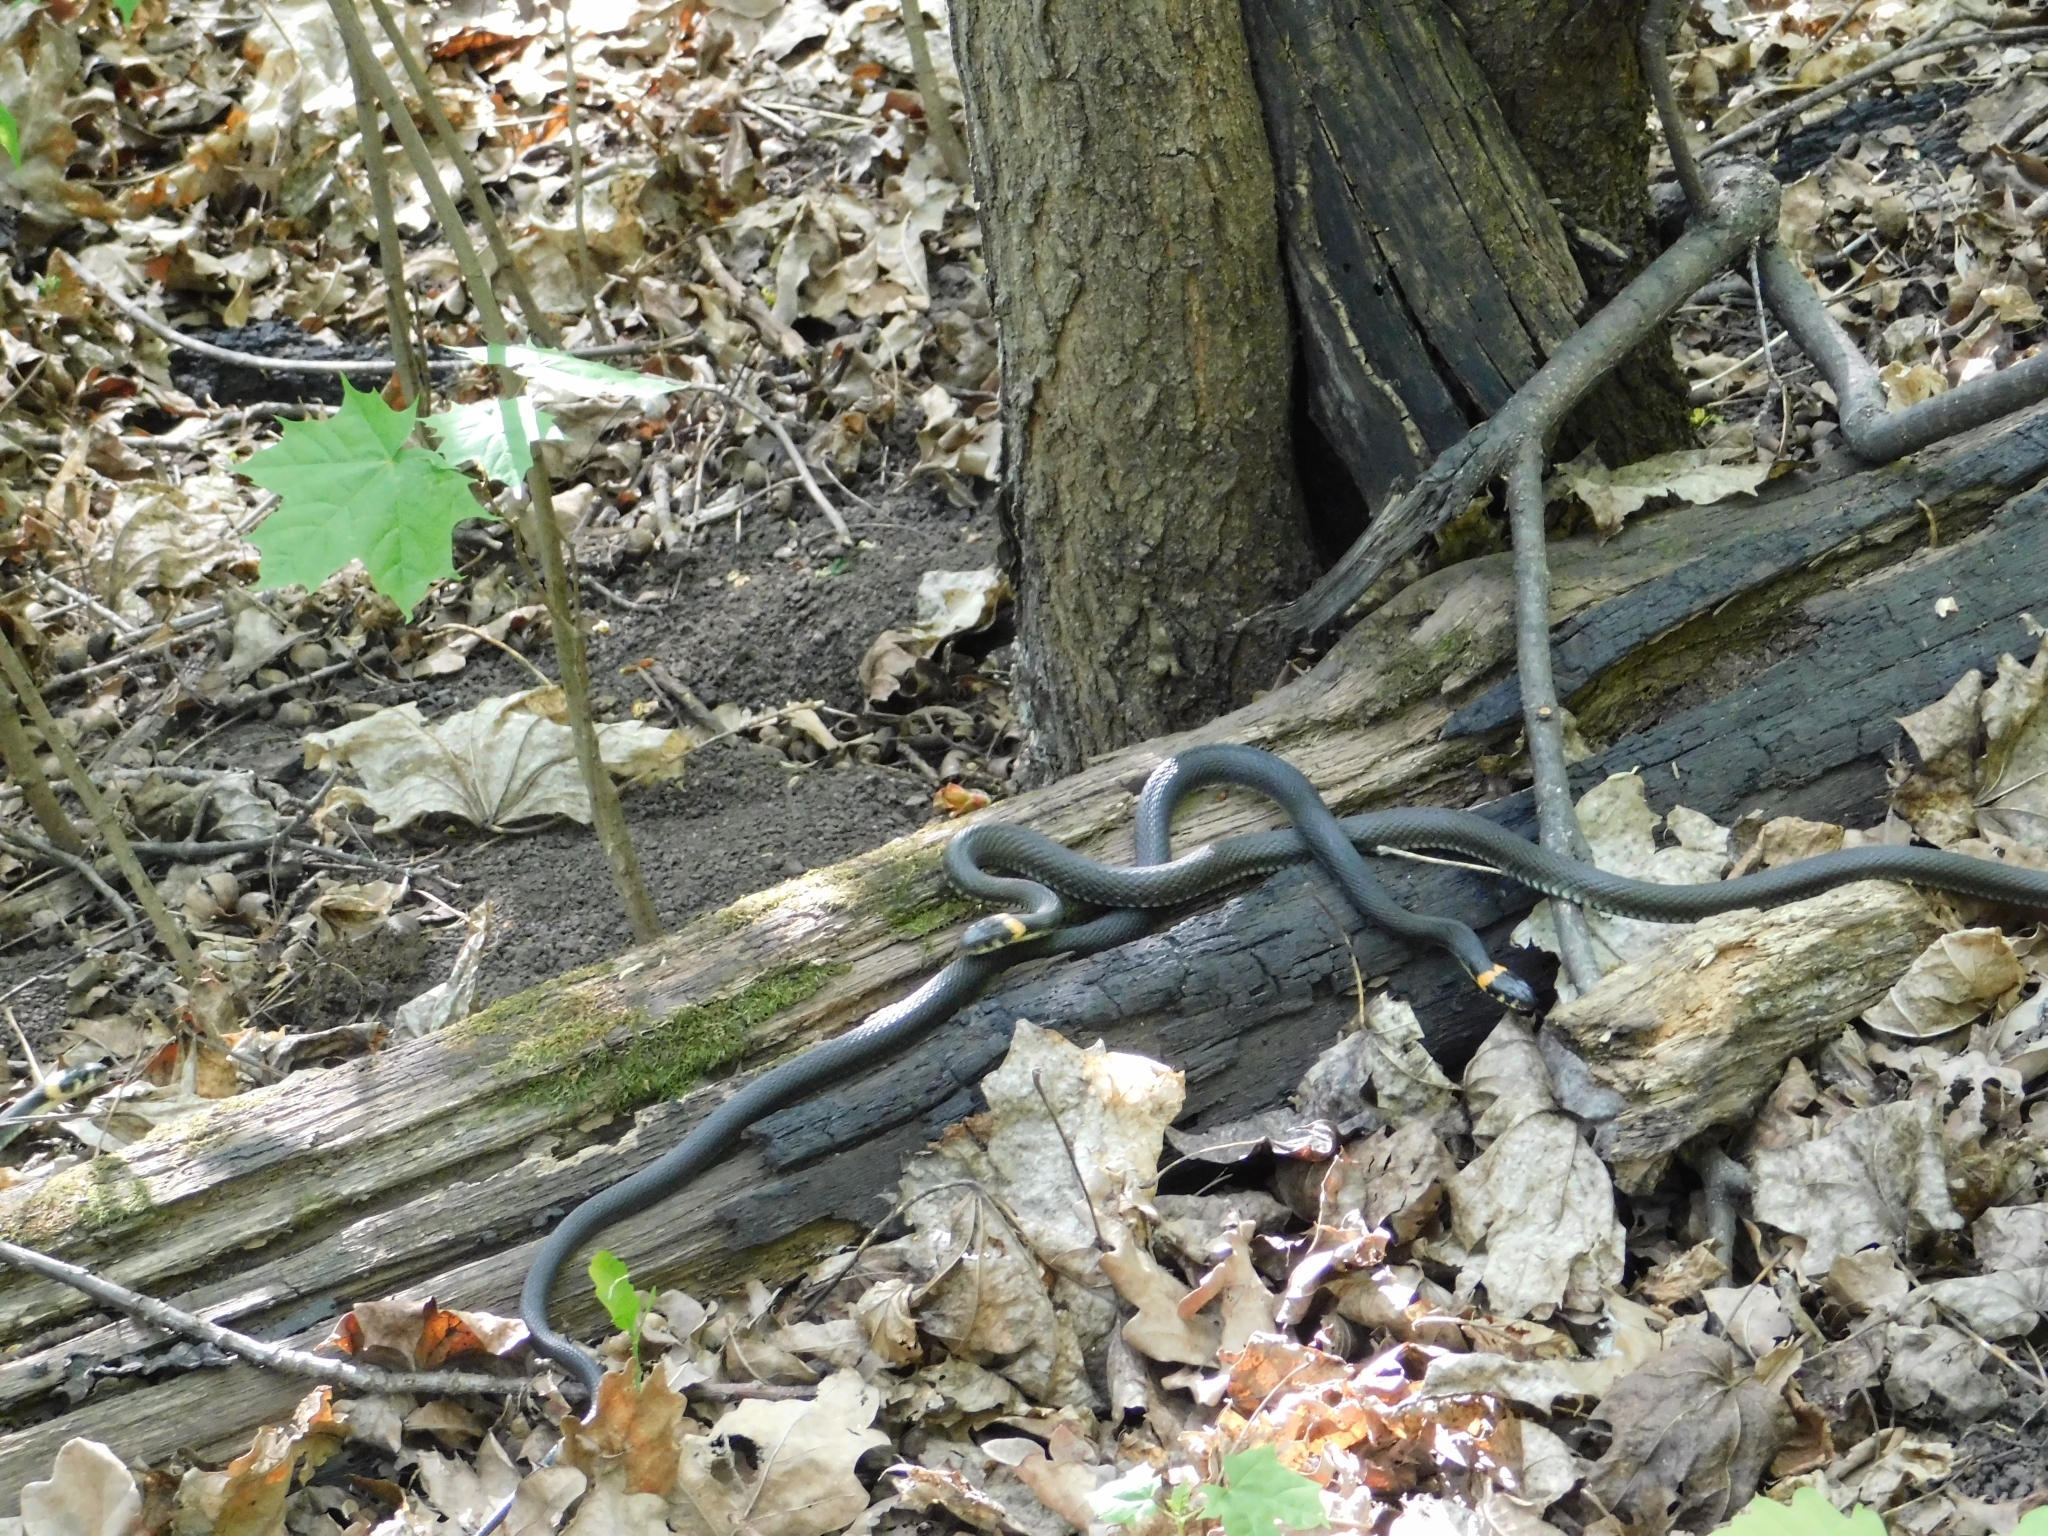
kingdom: Animalia
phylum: Chordata
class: Squamata
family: Colubridae
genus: Natrix
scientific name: Natrix natrix
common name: Grass snake
